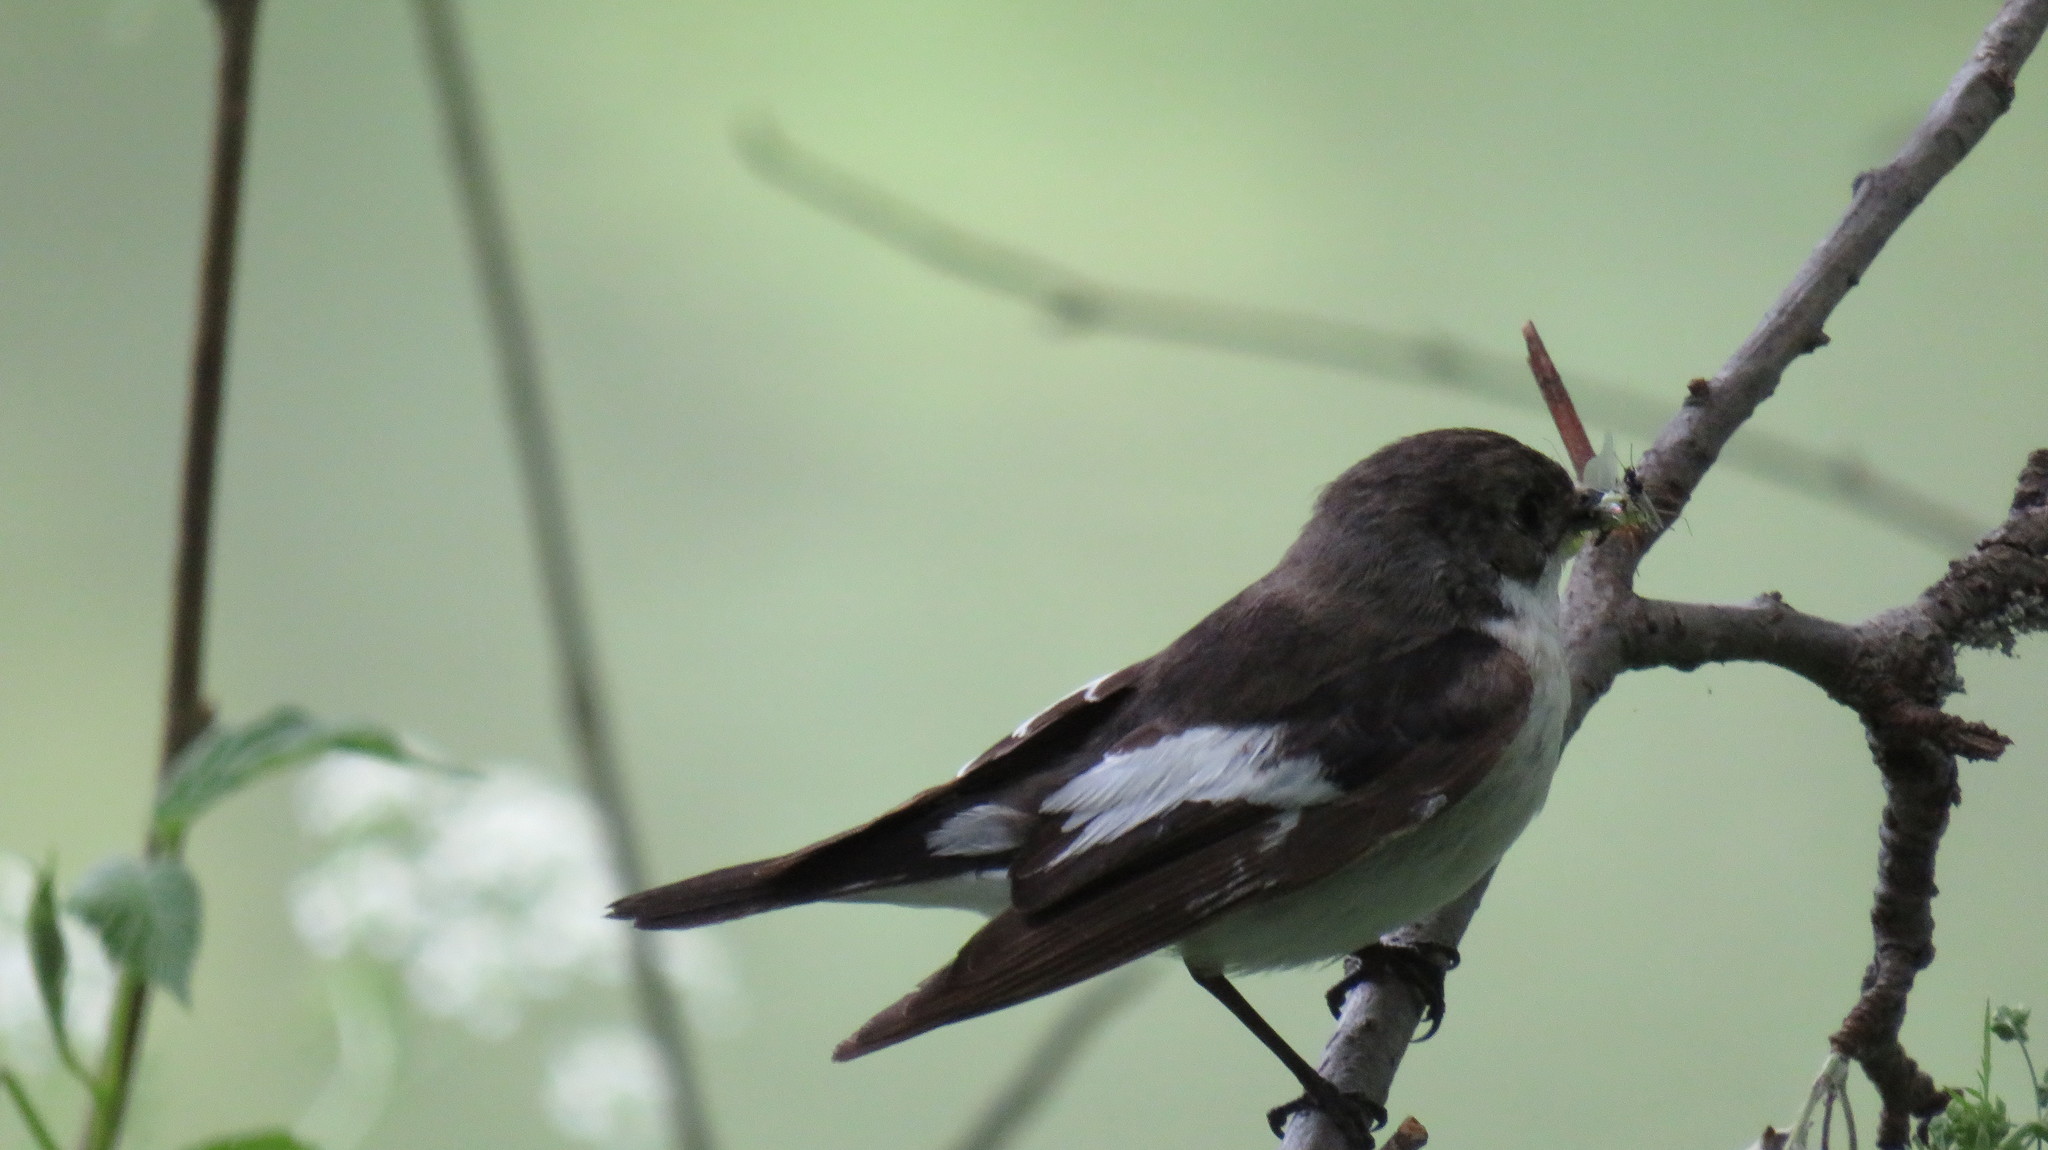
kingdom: Animalia
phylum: Chordata
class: Aves
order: Passeriformes
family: Muscicapidae
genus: Ficedula
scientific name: Ficedula hypoleuca
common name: European pied flycatcher
